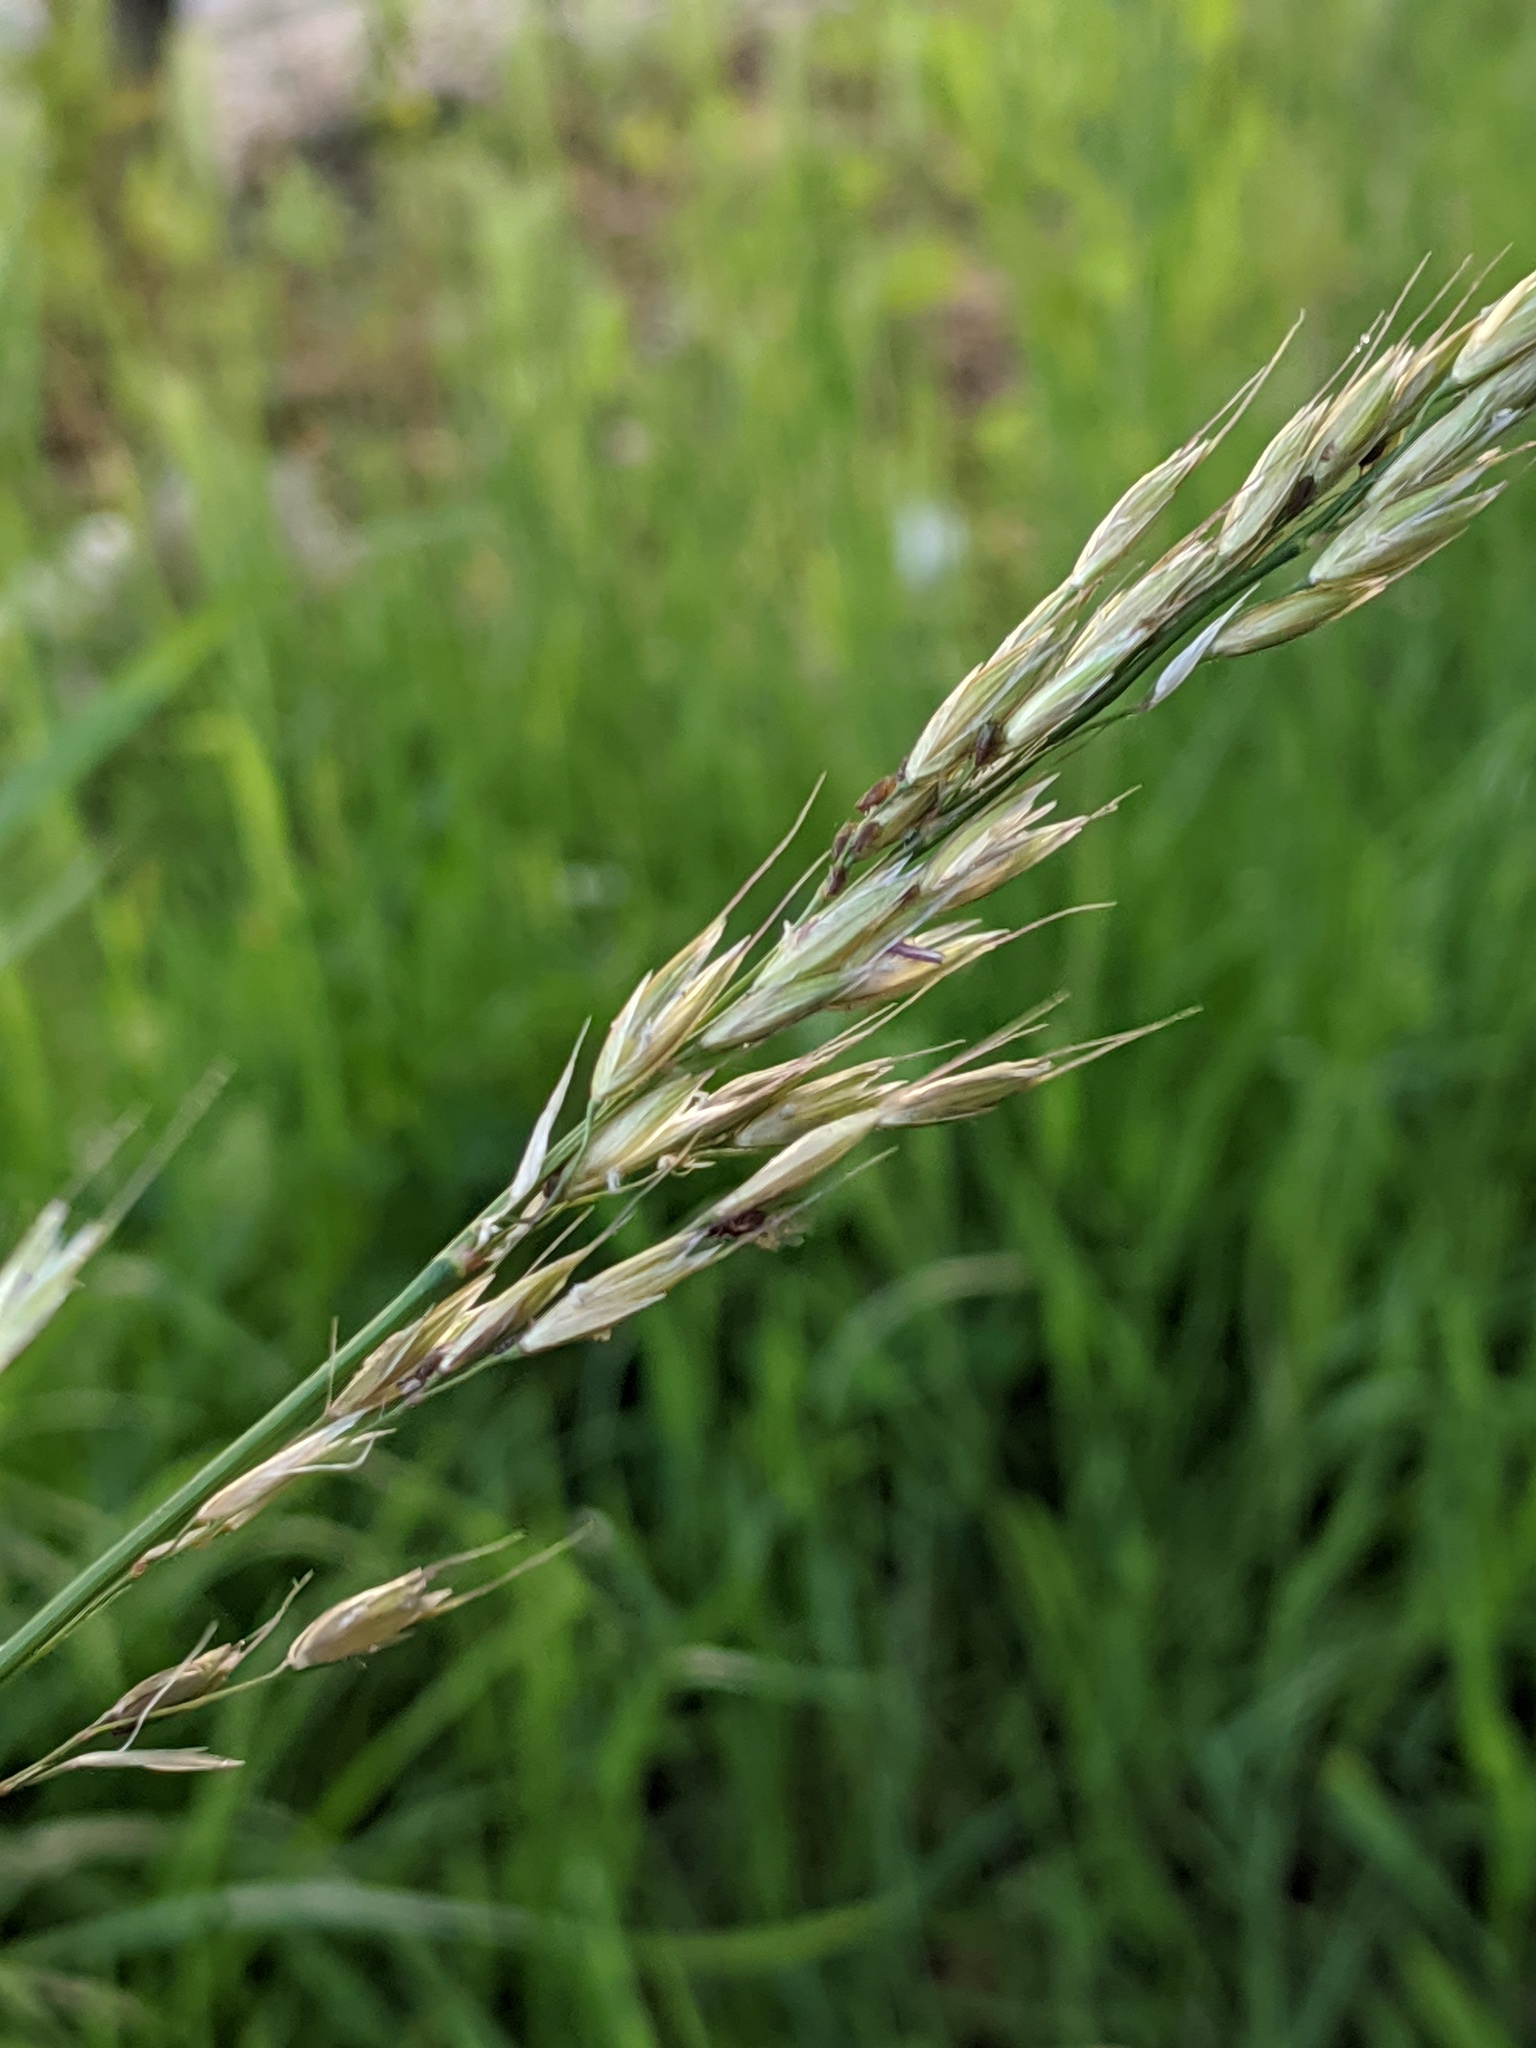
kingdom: Plantae
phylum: Tracheophyta
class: Liliopsida
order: Poales
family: Poaceae
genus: Arrhenatherum
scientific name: Arrhenatherum elatius
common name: Tall oatgrass
